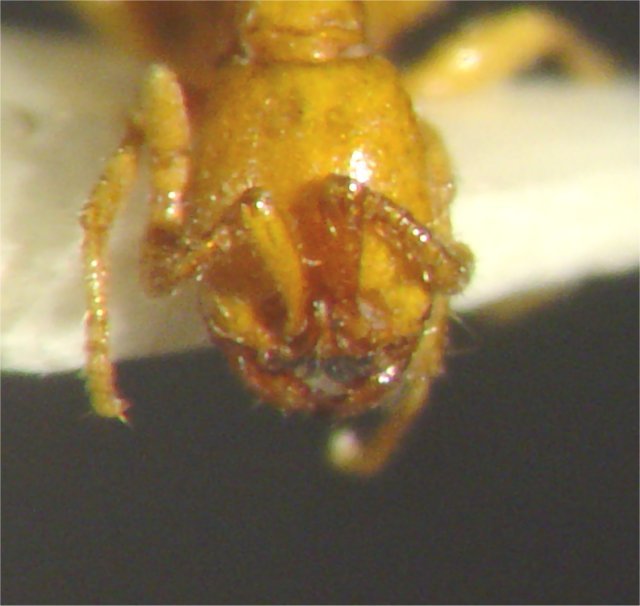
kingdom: Animalia
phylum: Arthropoda
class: Insecta
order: Hymenoptera
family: Formicidae
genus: Neivamyrmex
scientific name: Neivamyrmex nyensis
